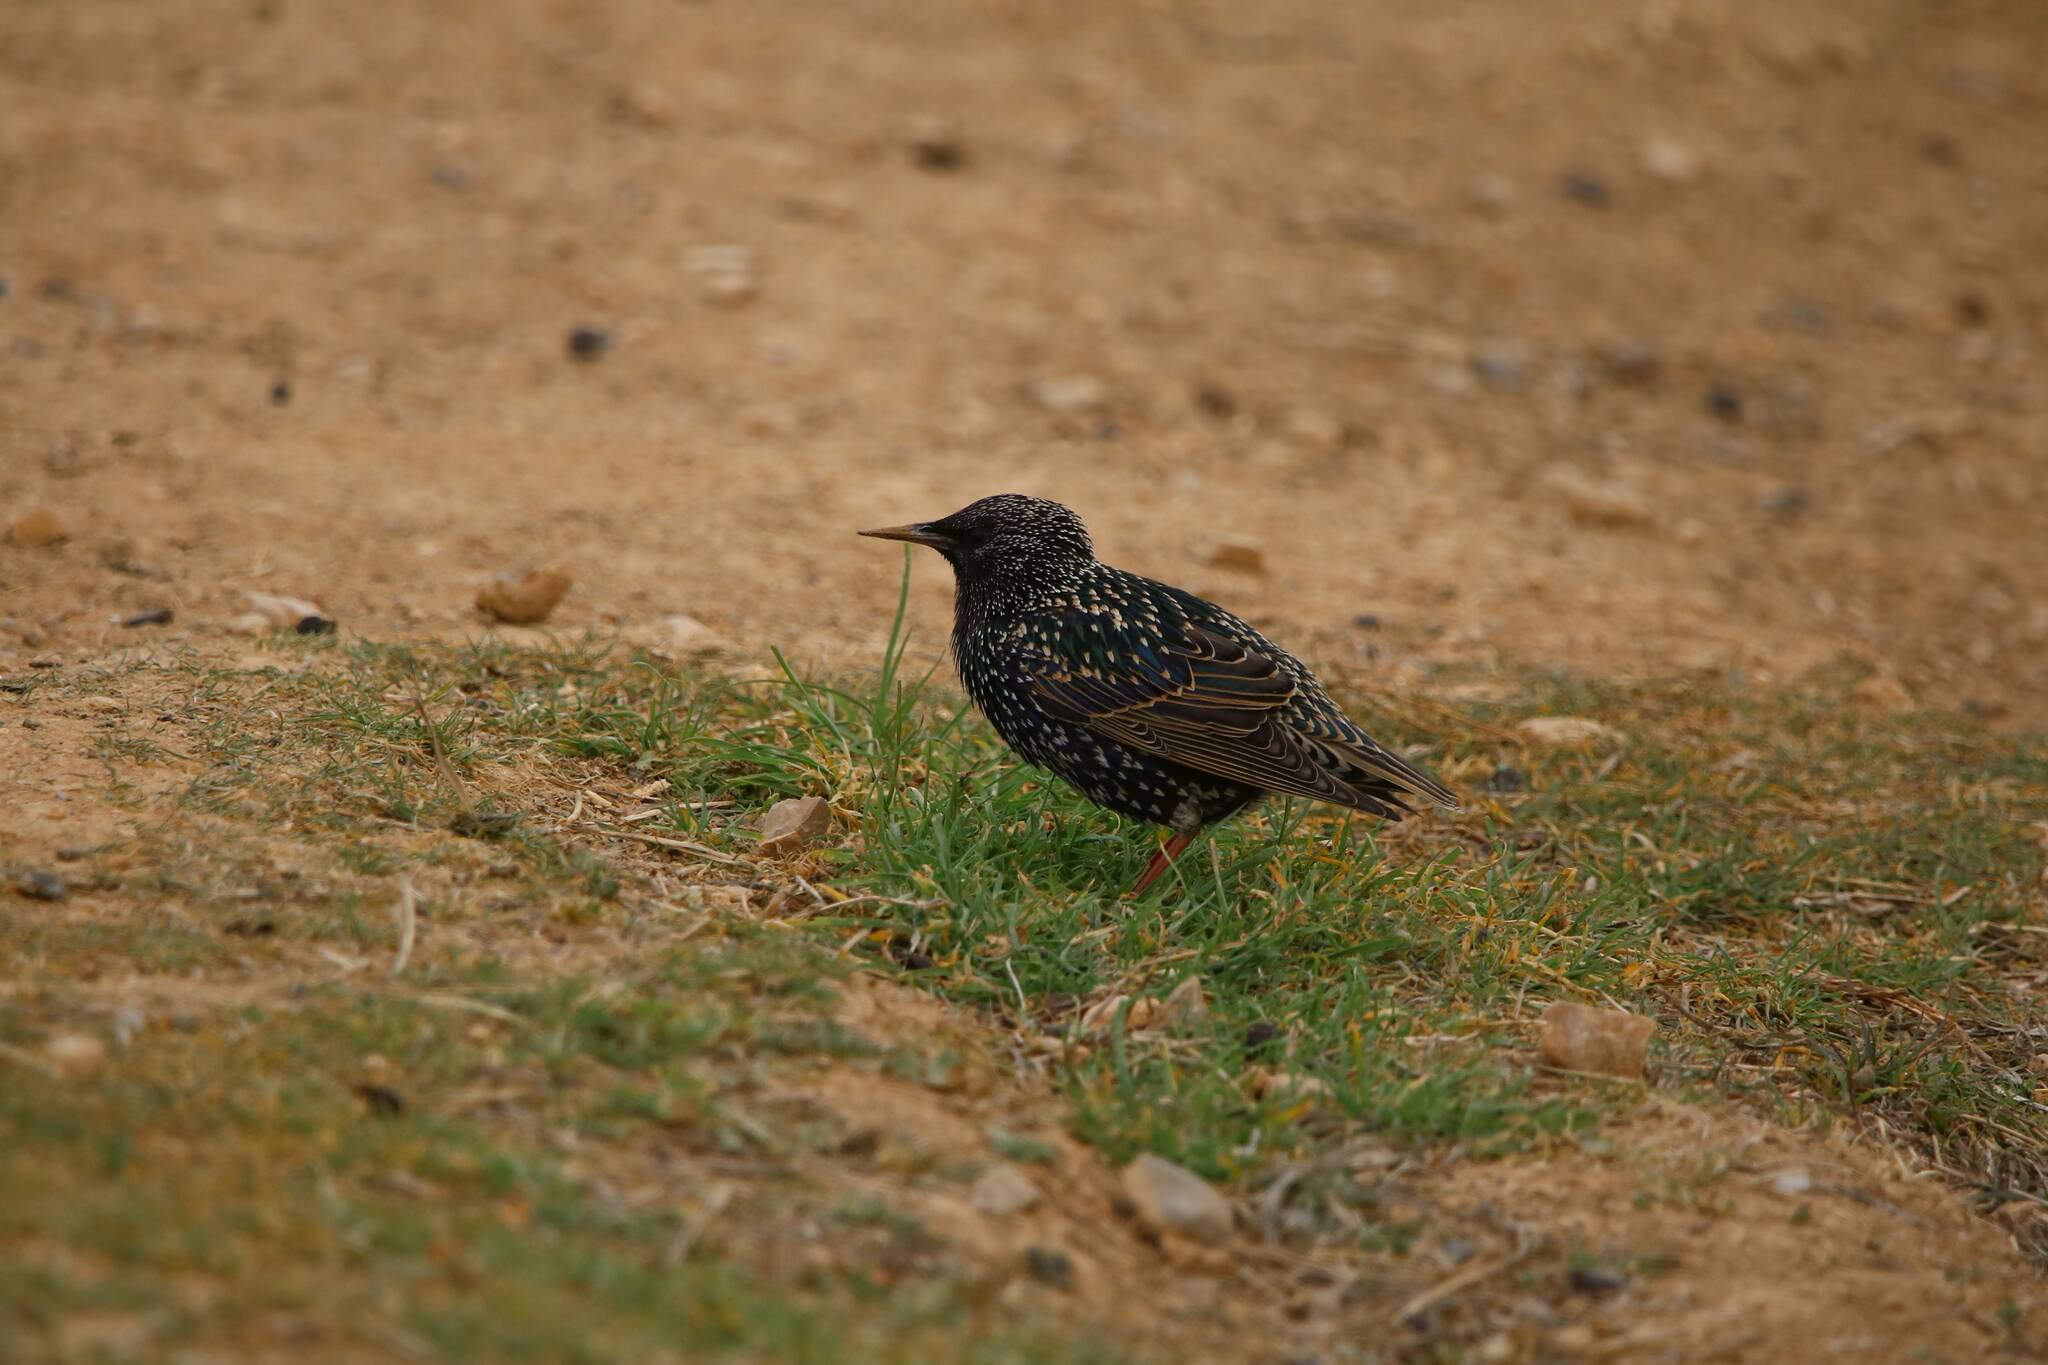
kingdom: Animalia
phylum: Chordata
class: Aves
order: Passeriformes
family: Sturnidae
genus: Sturnus
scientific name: Sturnus vulgaris
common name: Common starling
